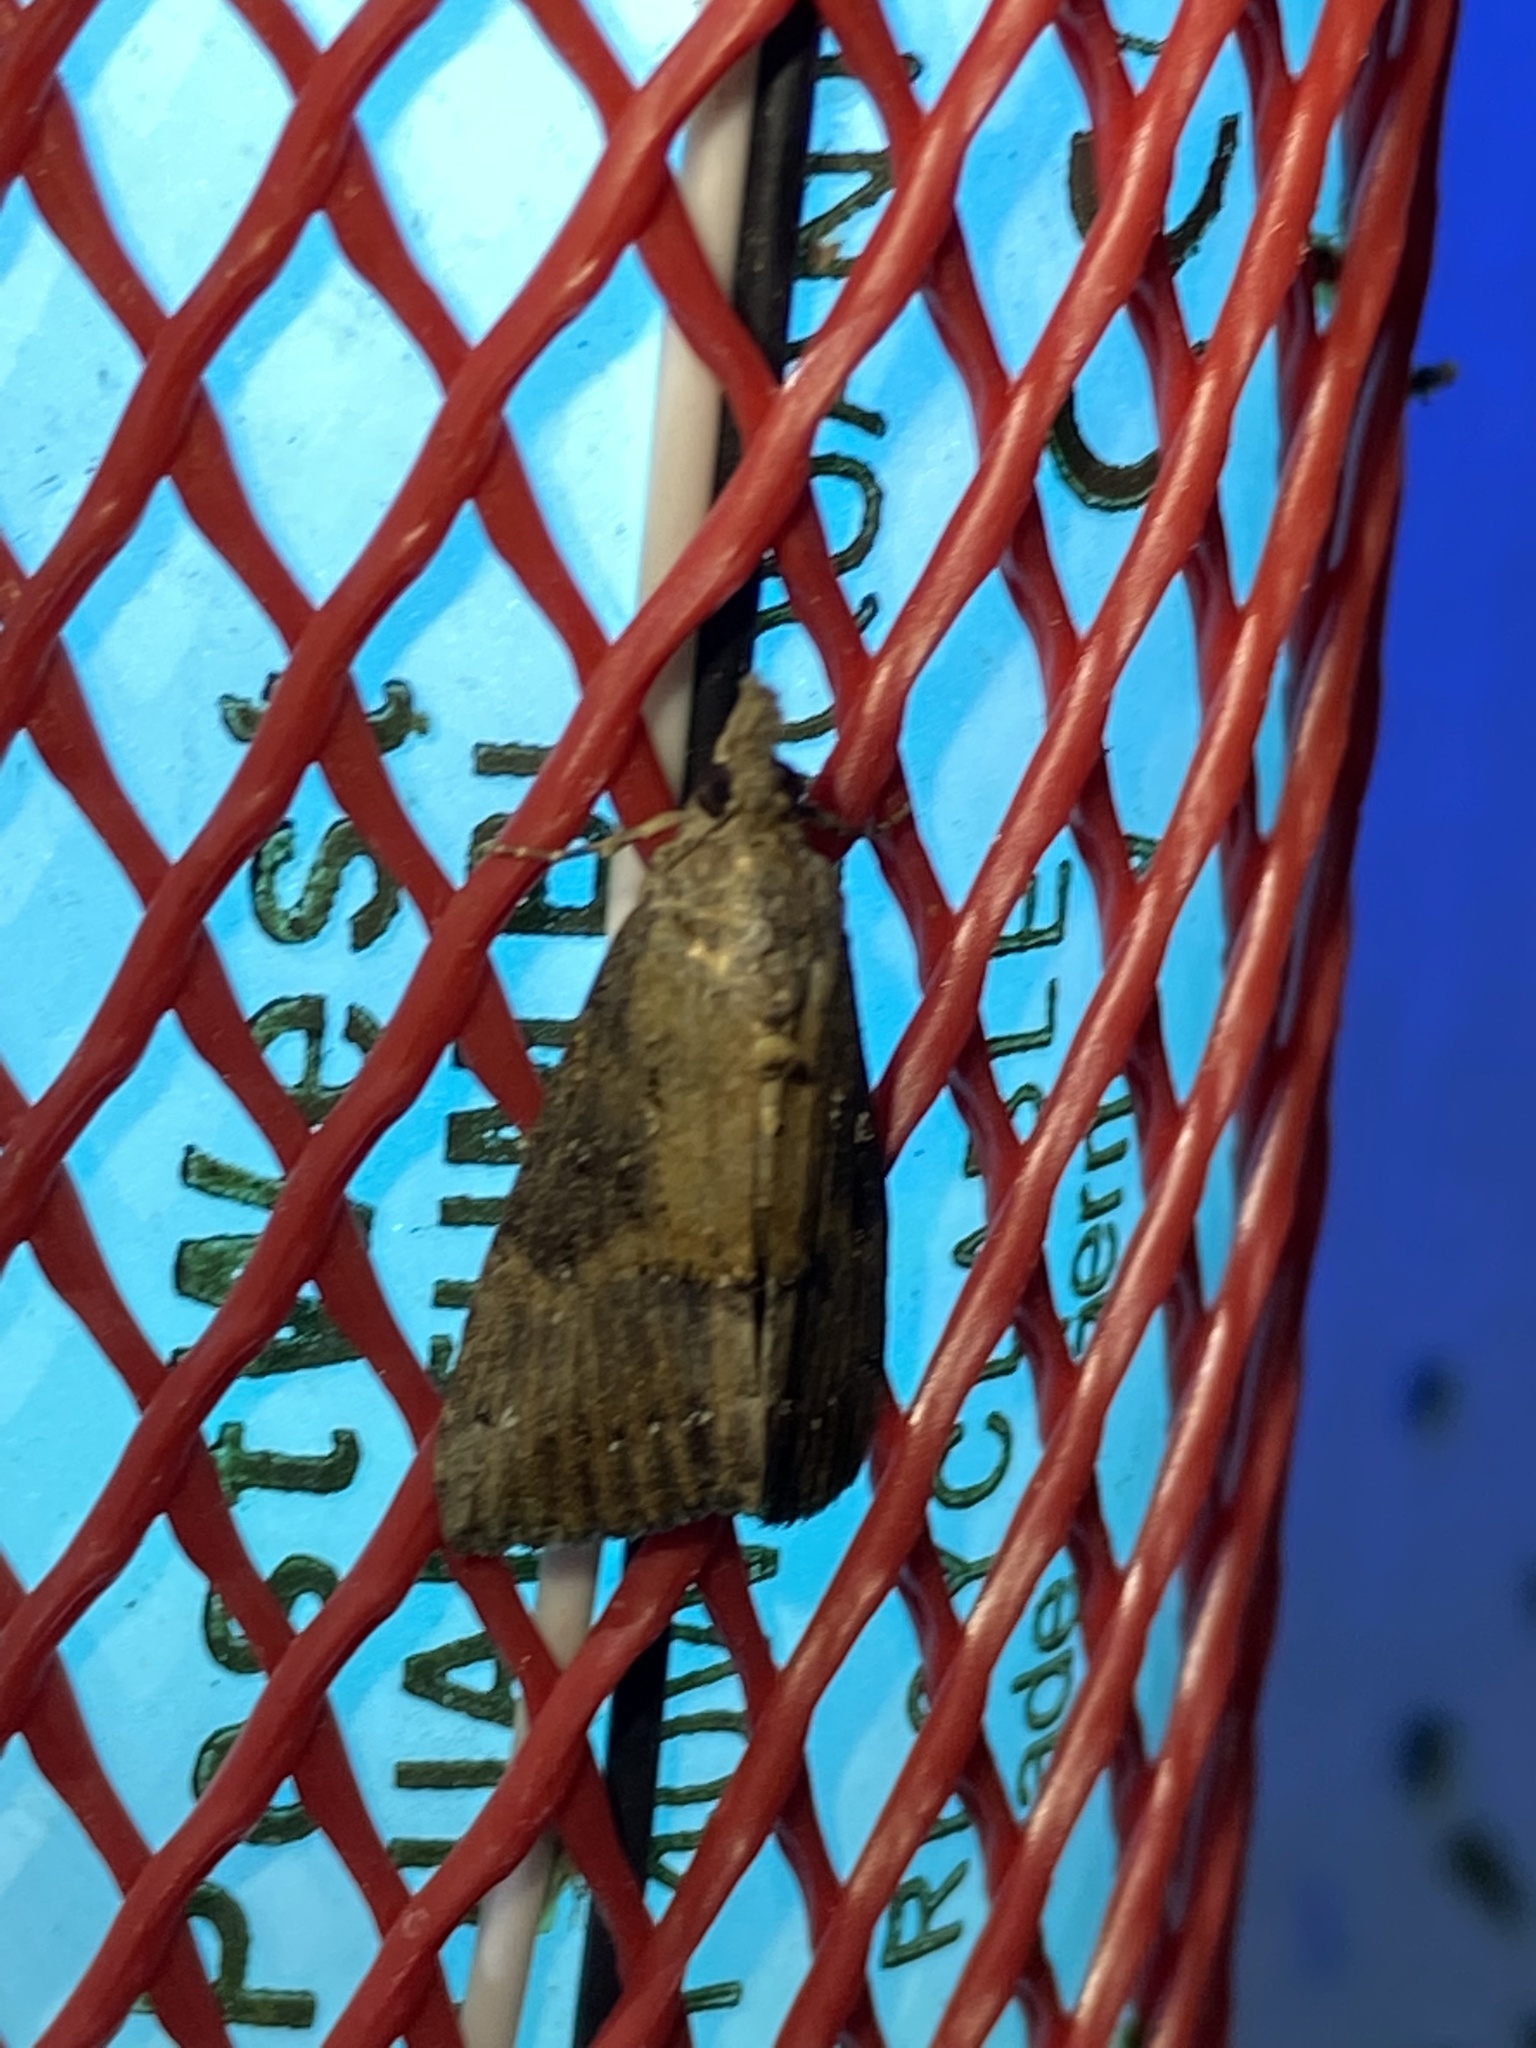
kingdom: Animalia
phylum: Arthropoda
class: Insecta
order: Lepidoptera
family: Erebidae
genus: Hypena
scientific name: Hypena scabra
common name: Green cloverworm
